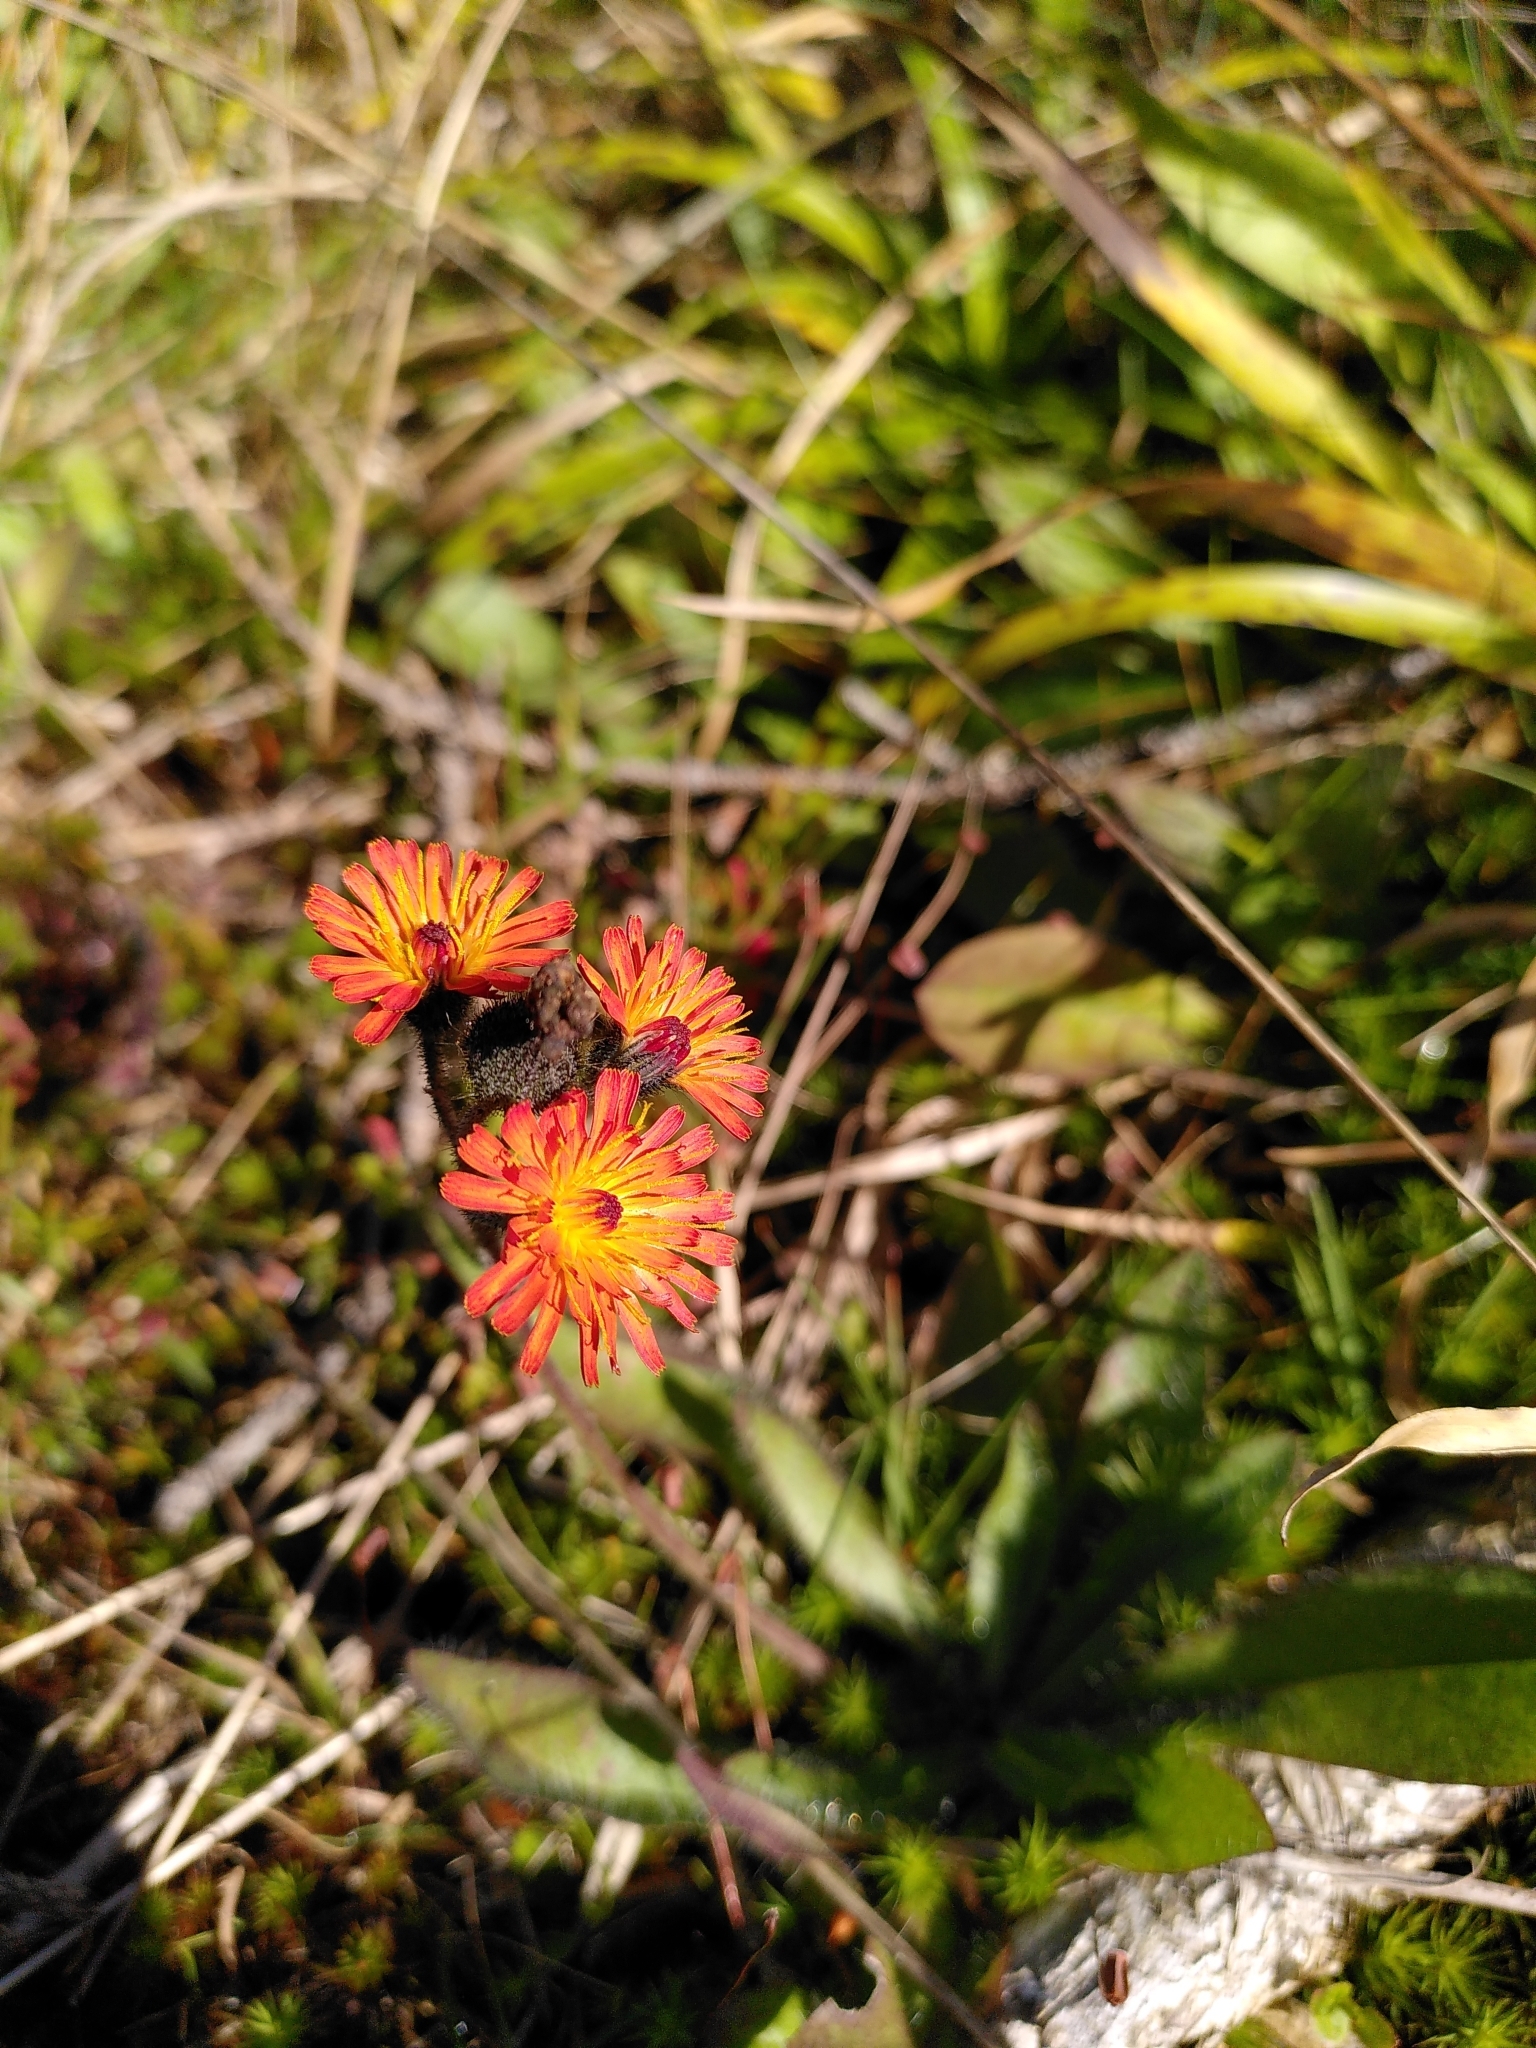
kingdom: Plantae
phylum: Tracheophyta
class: Magnoliopsida
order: Asterales
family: Asteraceae
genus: Pilosella
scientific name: Pilosella aurantiaca
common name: Fox-and-cubs
